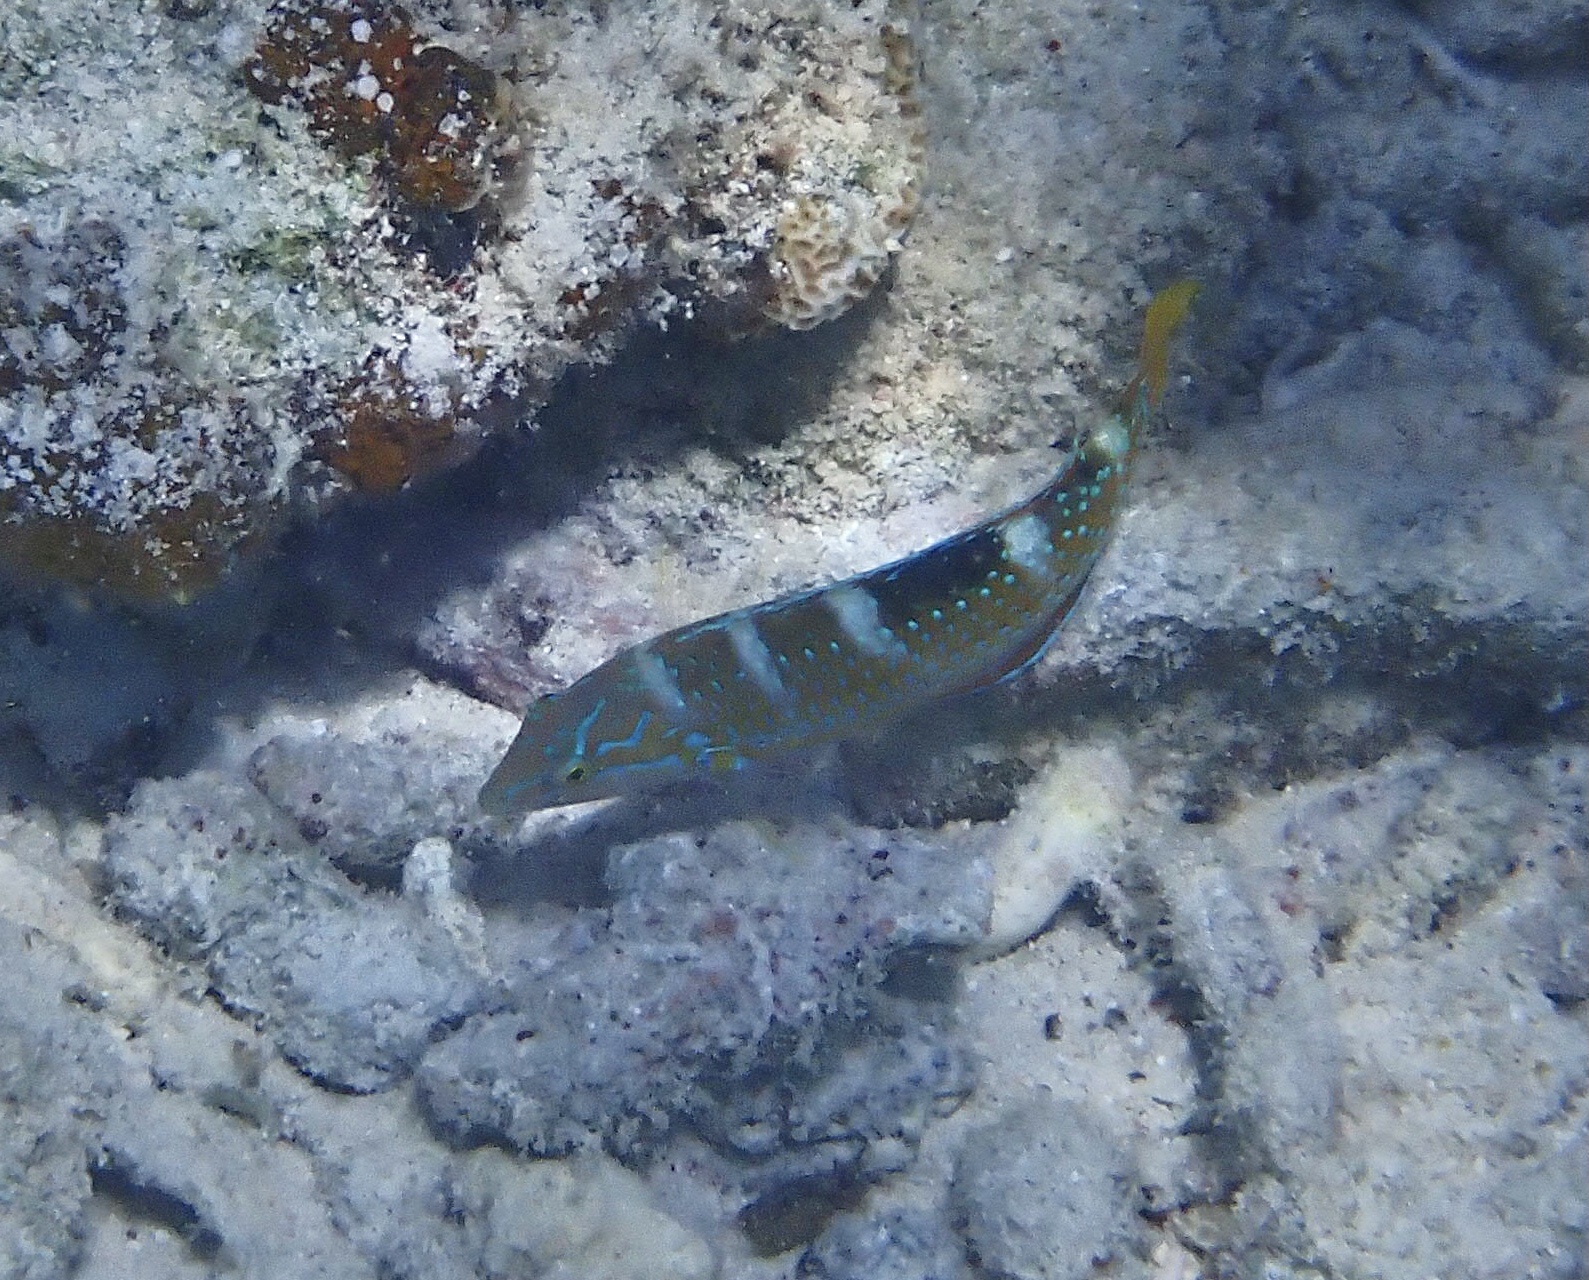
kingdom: Animalia
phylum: Chordata
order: Perciformes
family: Labridae
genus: Halichoeres
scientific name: Halichoeres radiatus
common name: Puddingwife
